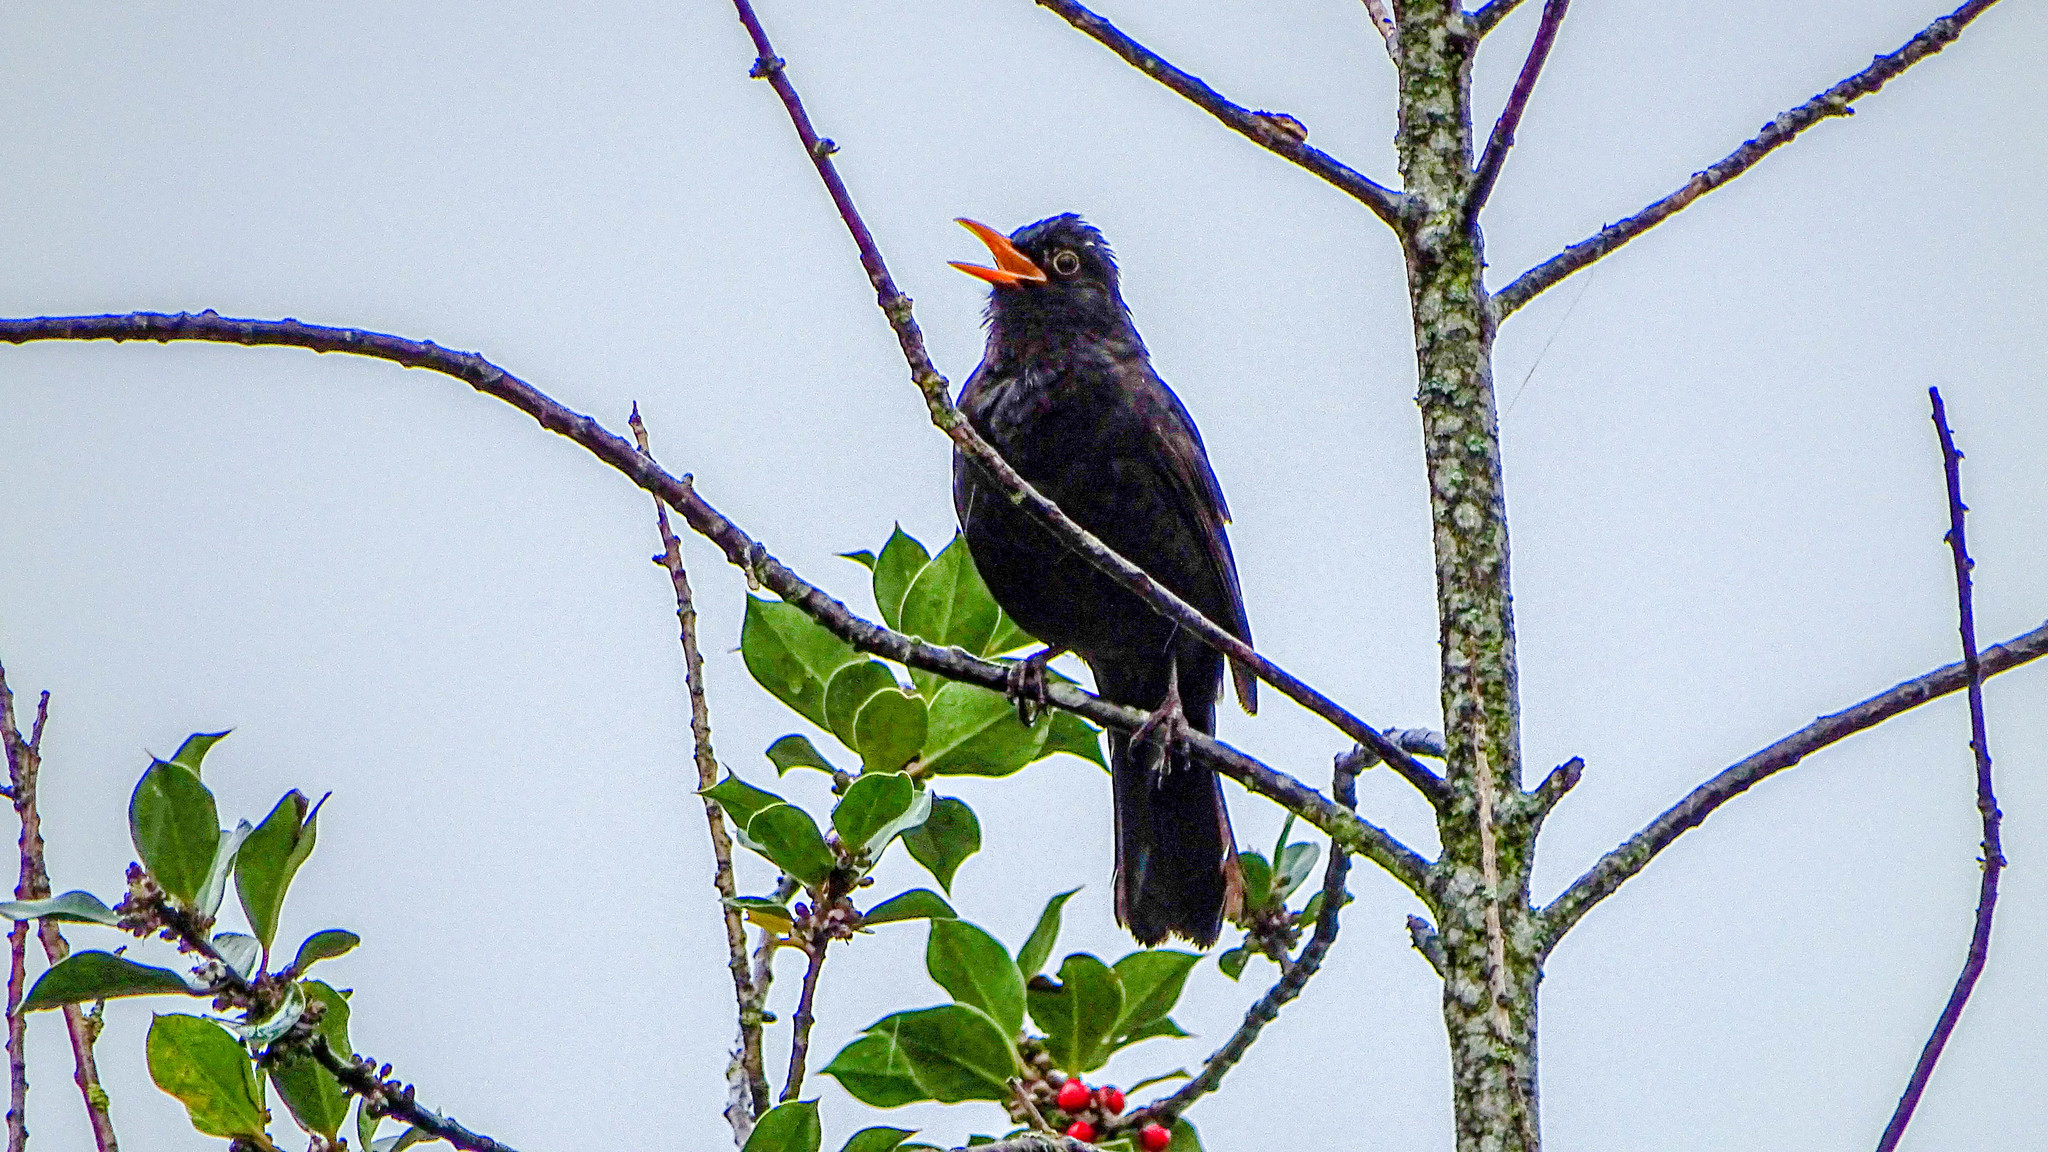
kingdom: Animalia
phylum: Chordata
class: Aves
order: Passeriformes
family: Turdidae
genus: Turdus
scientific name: Turdus merula
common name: Common blackbird
